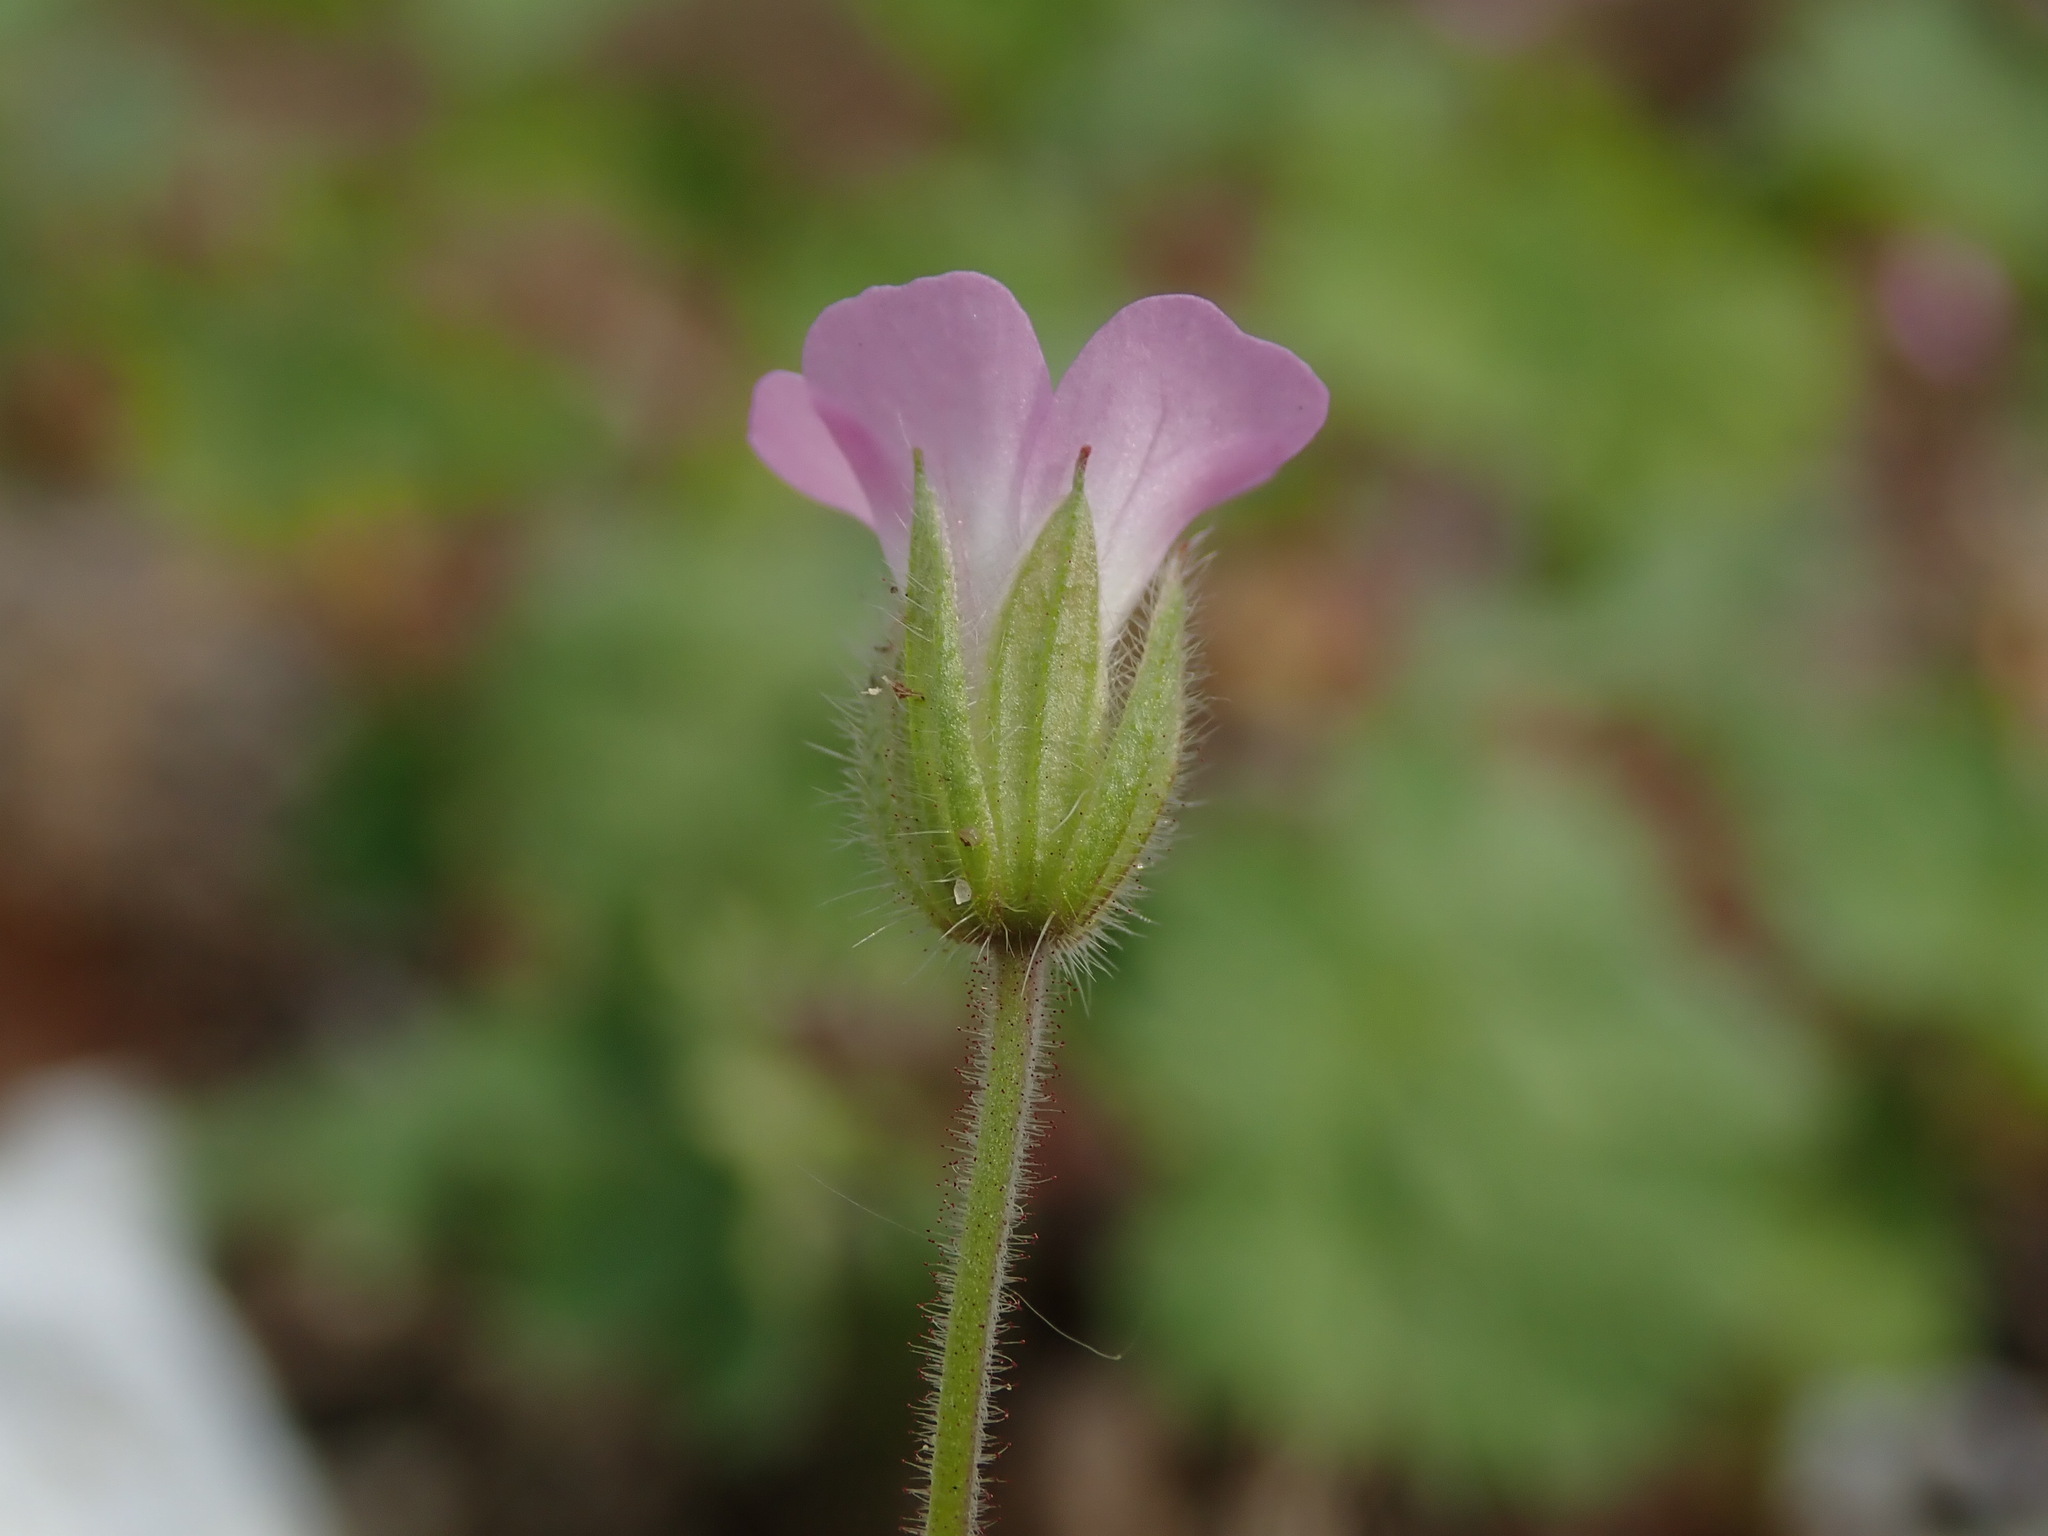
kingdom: Plantae
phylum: Tracheophyta
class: Magnoliopsida
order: Geraniales
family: Geraniaceae
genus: Geranium
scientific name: Geranium rotundifolium
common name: Round-leaved crane's-bill
